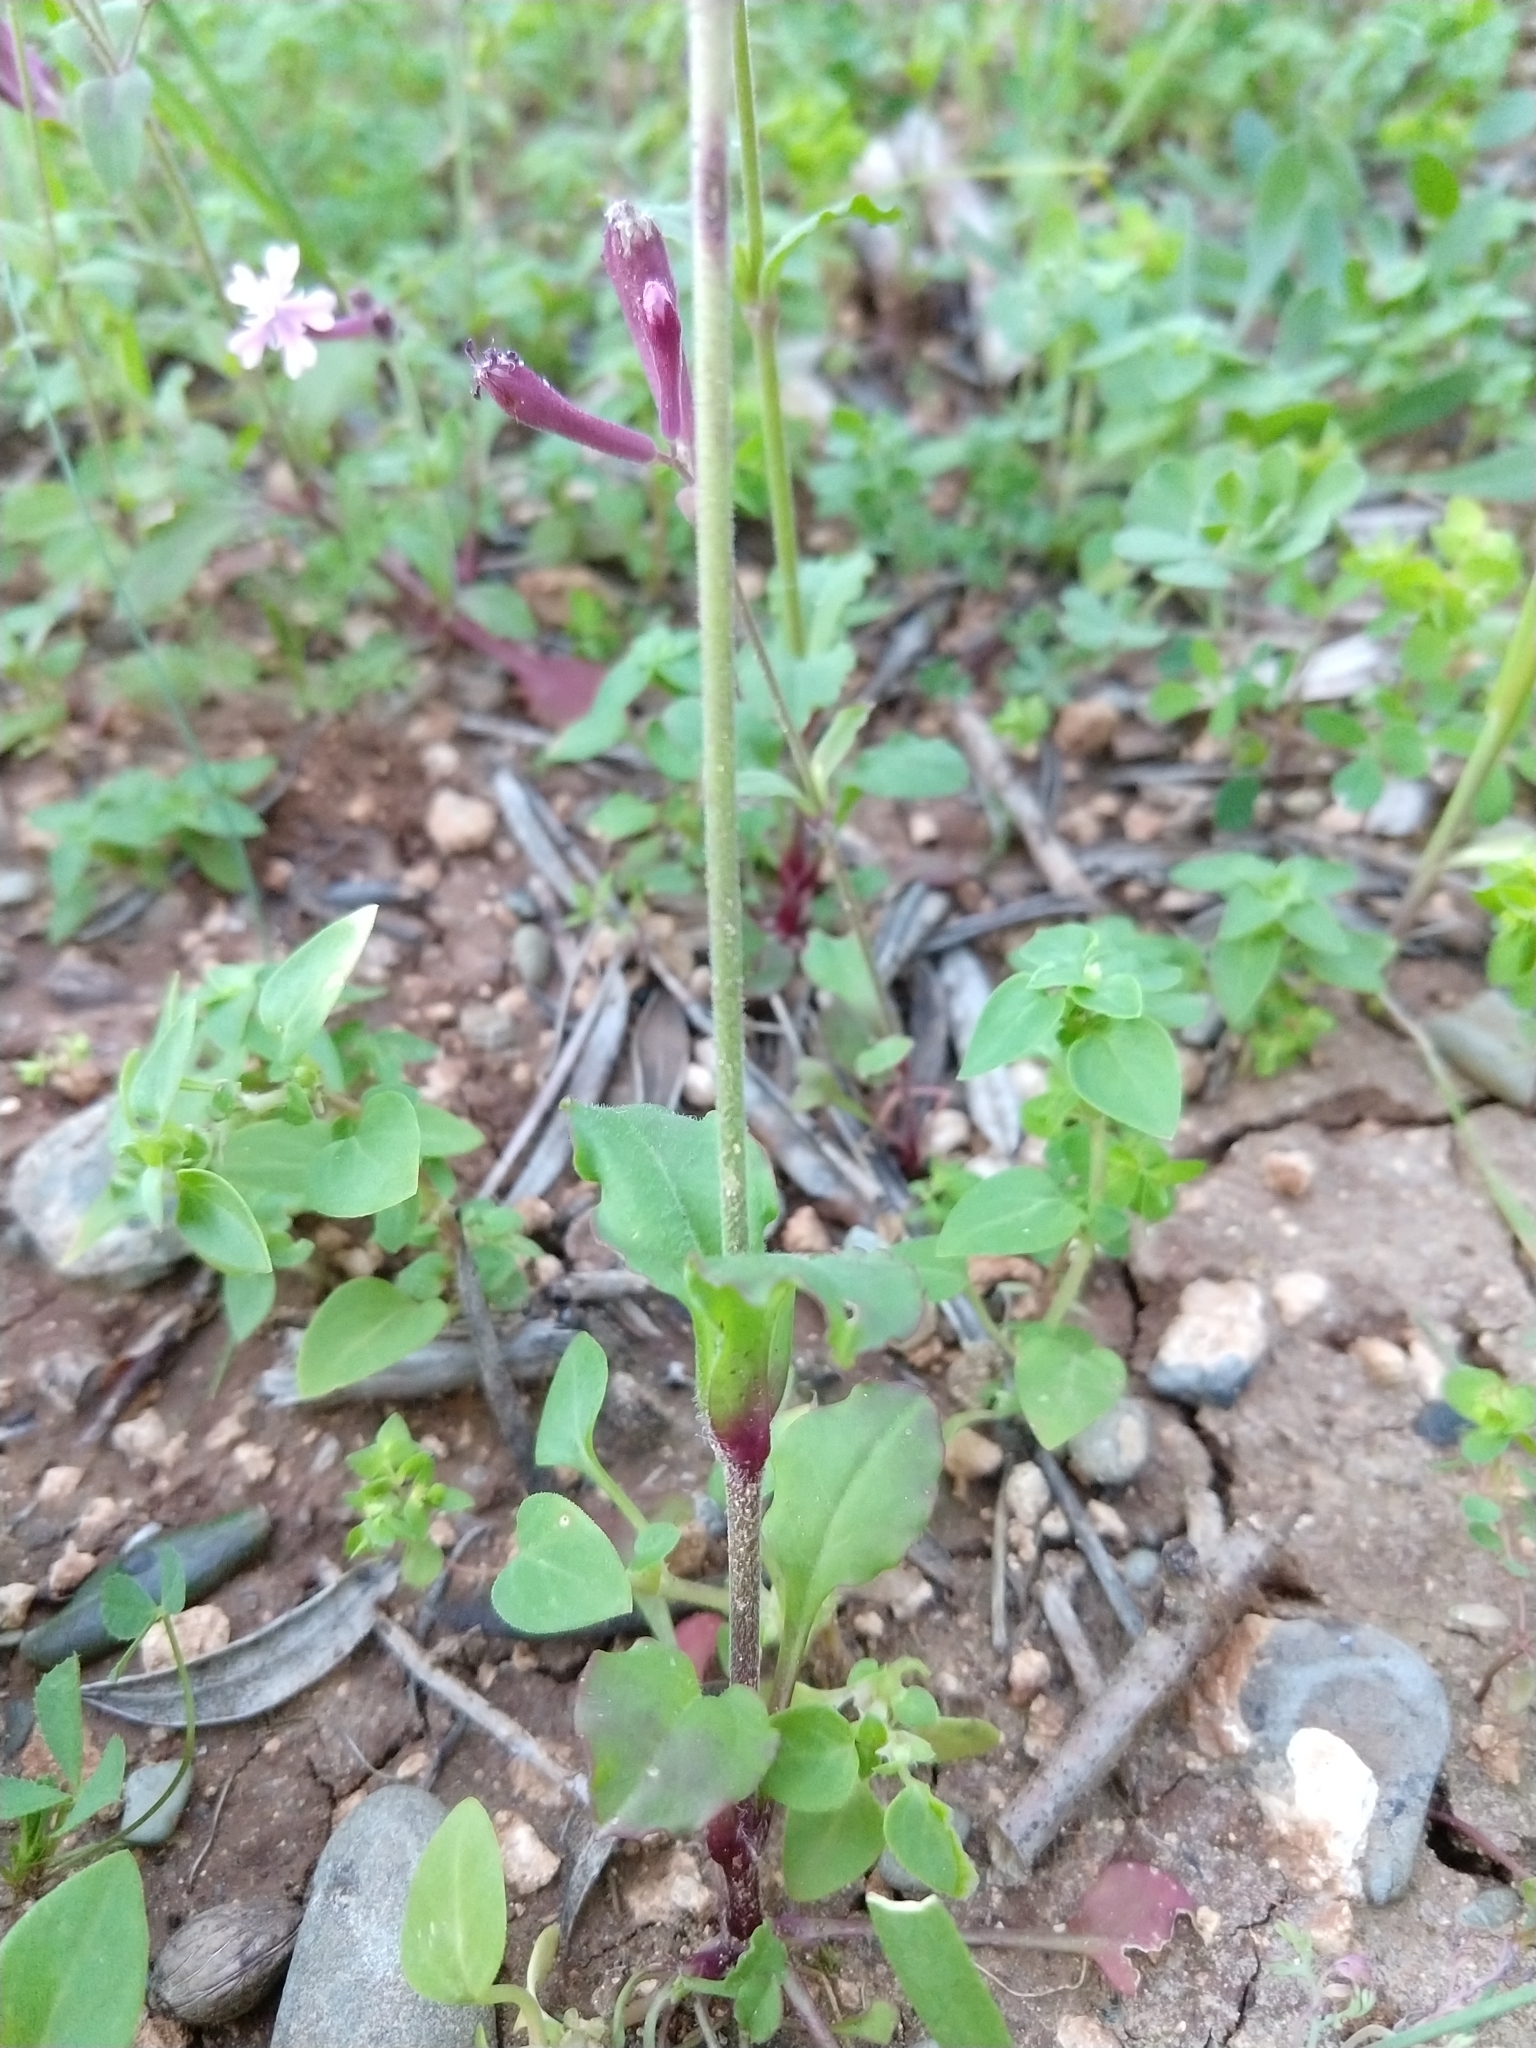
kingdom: Plantae
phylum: Tracheophyta
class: Magnoliopsida
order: Caryophyllales
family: Caryophyllaceae
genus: Silene
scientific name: Silene aegyptiaca
